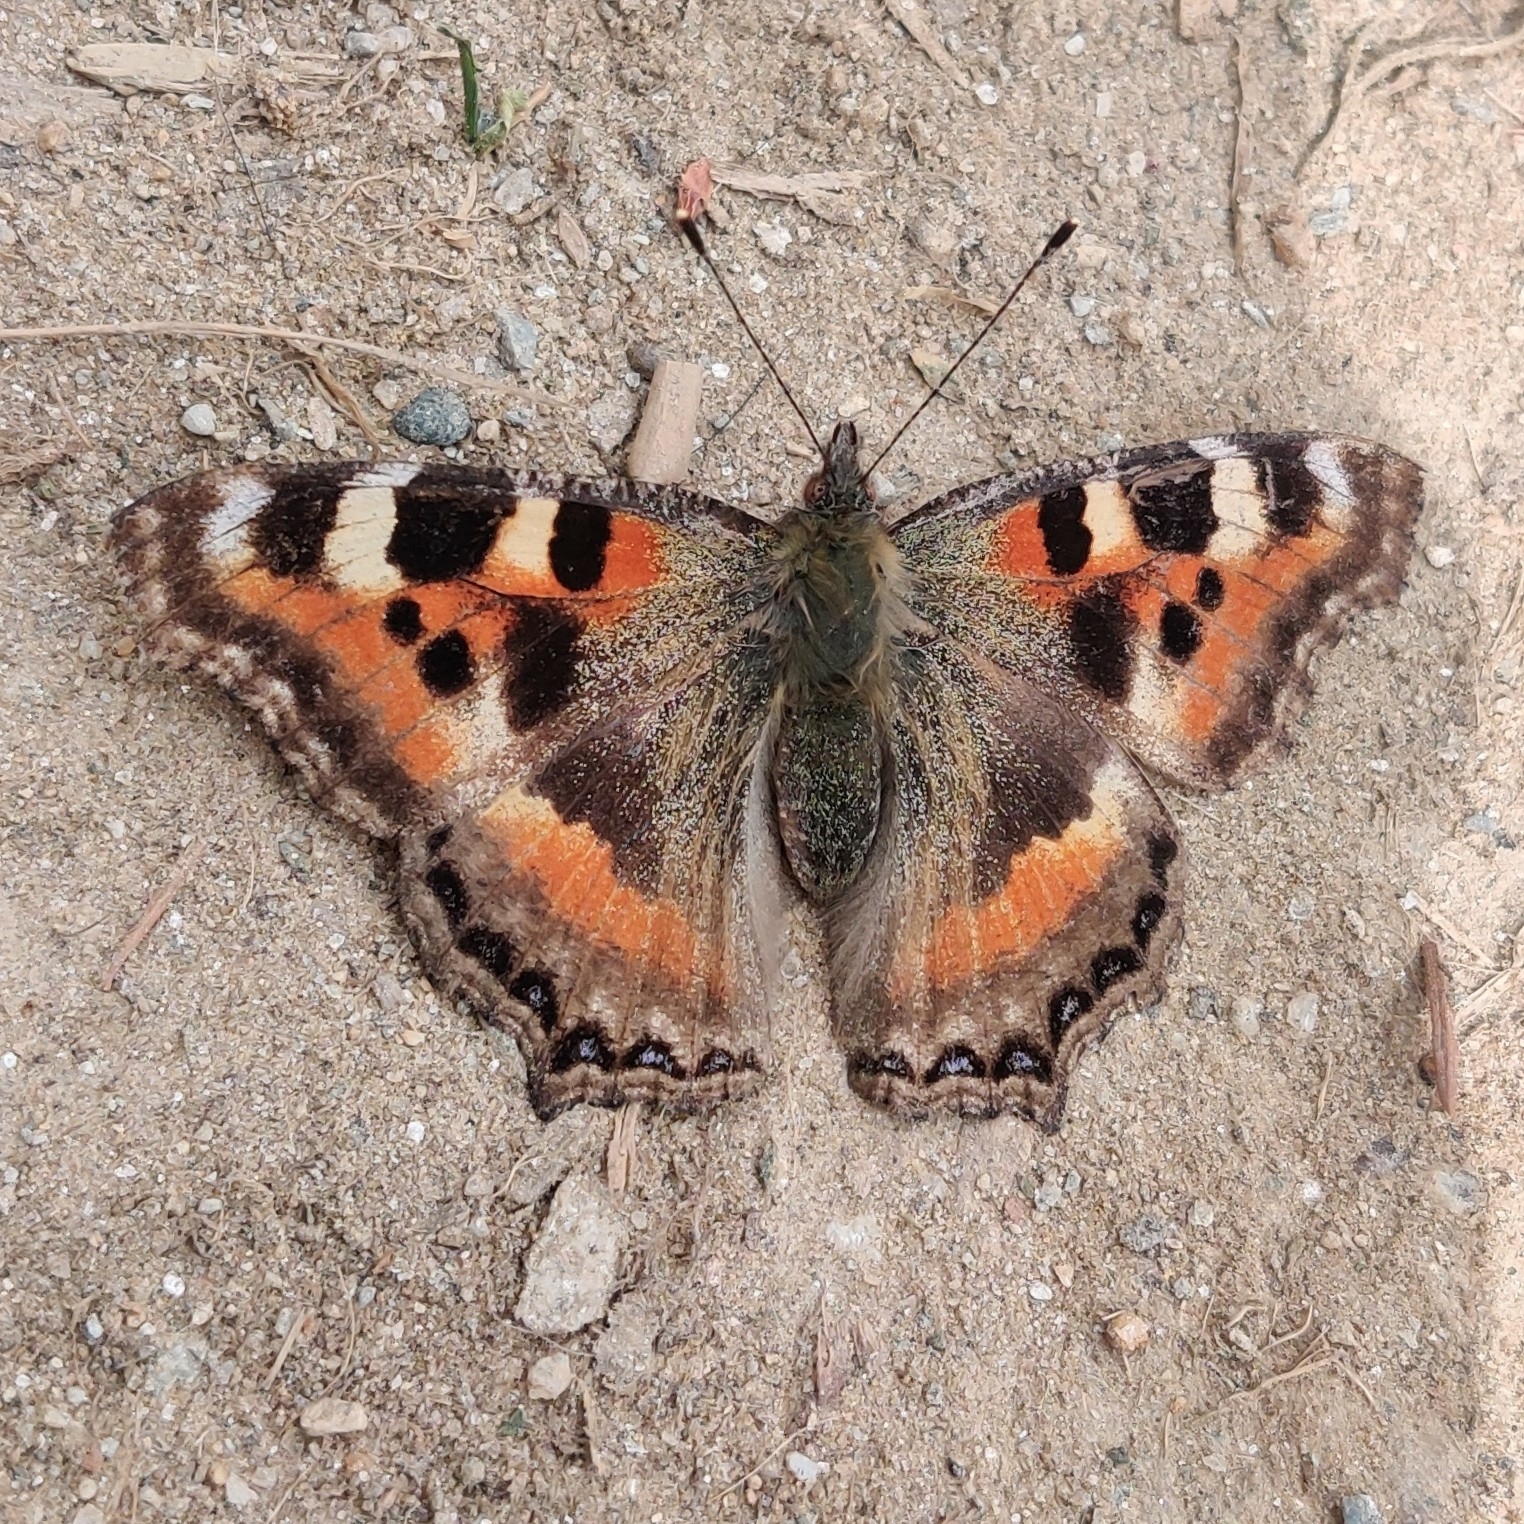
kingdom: Animalia
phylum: Arthropoda
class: Insecta
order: Lepidoptera
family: Nymphalidae
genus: Aglais
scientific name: Aglais caschmirensis
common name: Indian tortoiseshell
